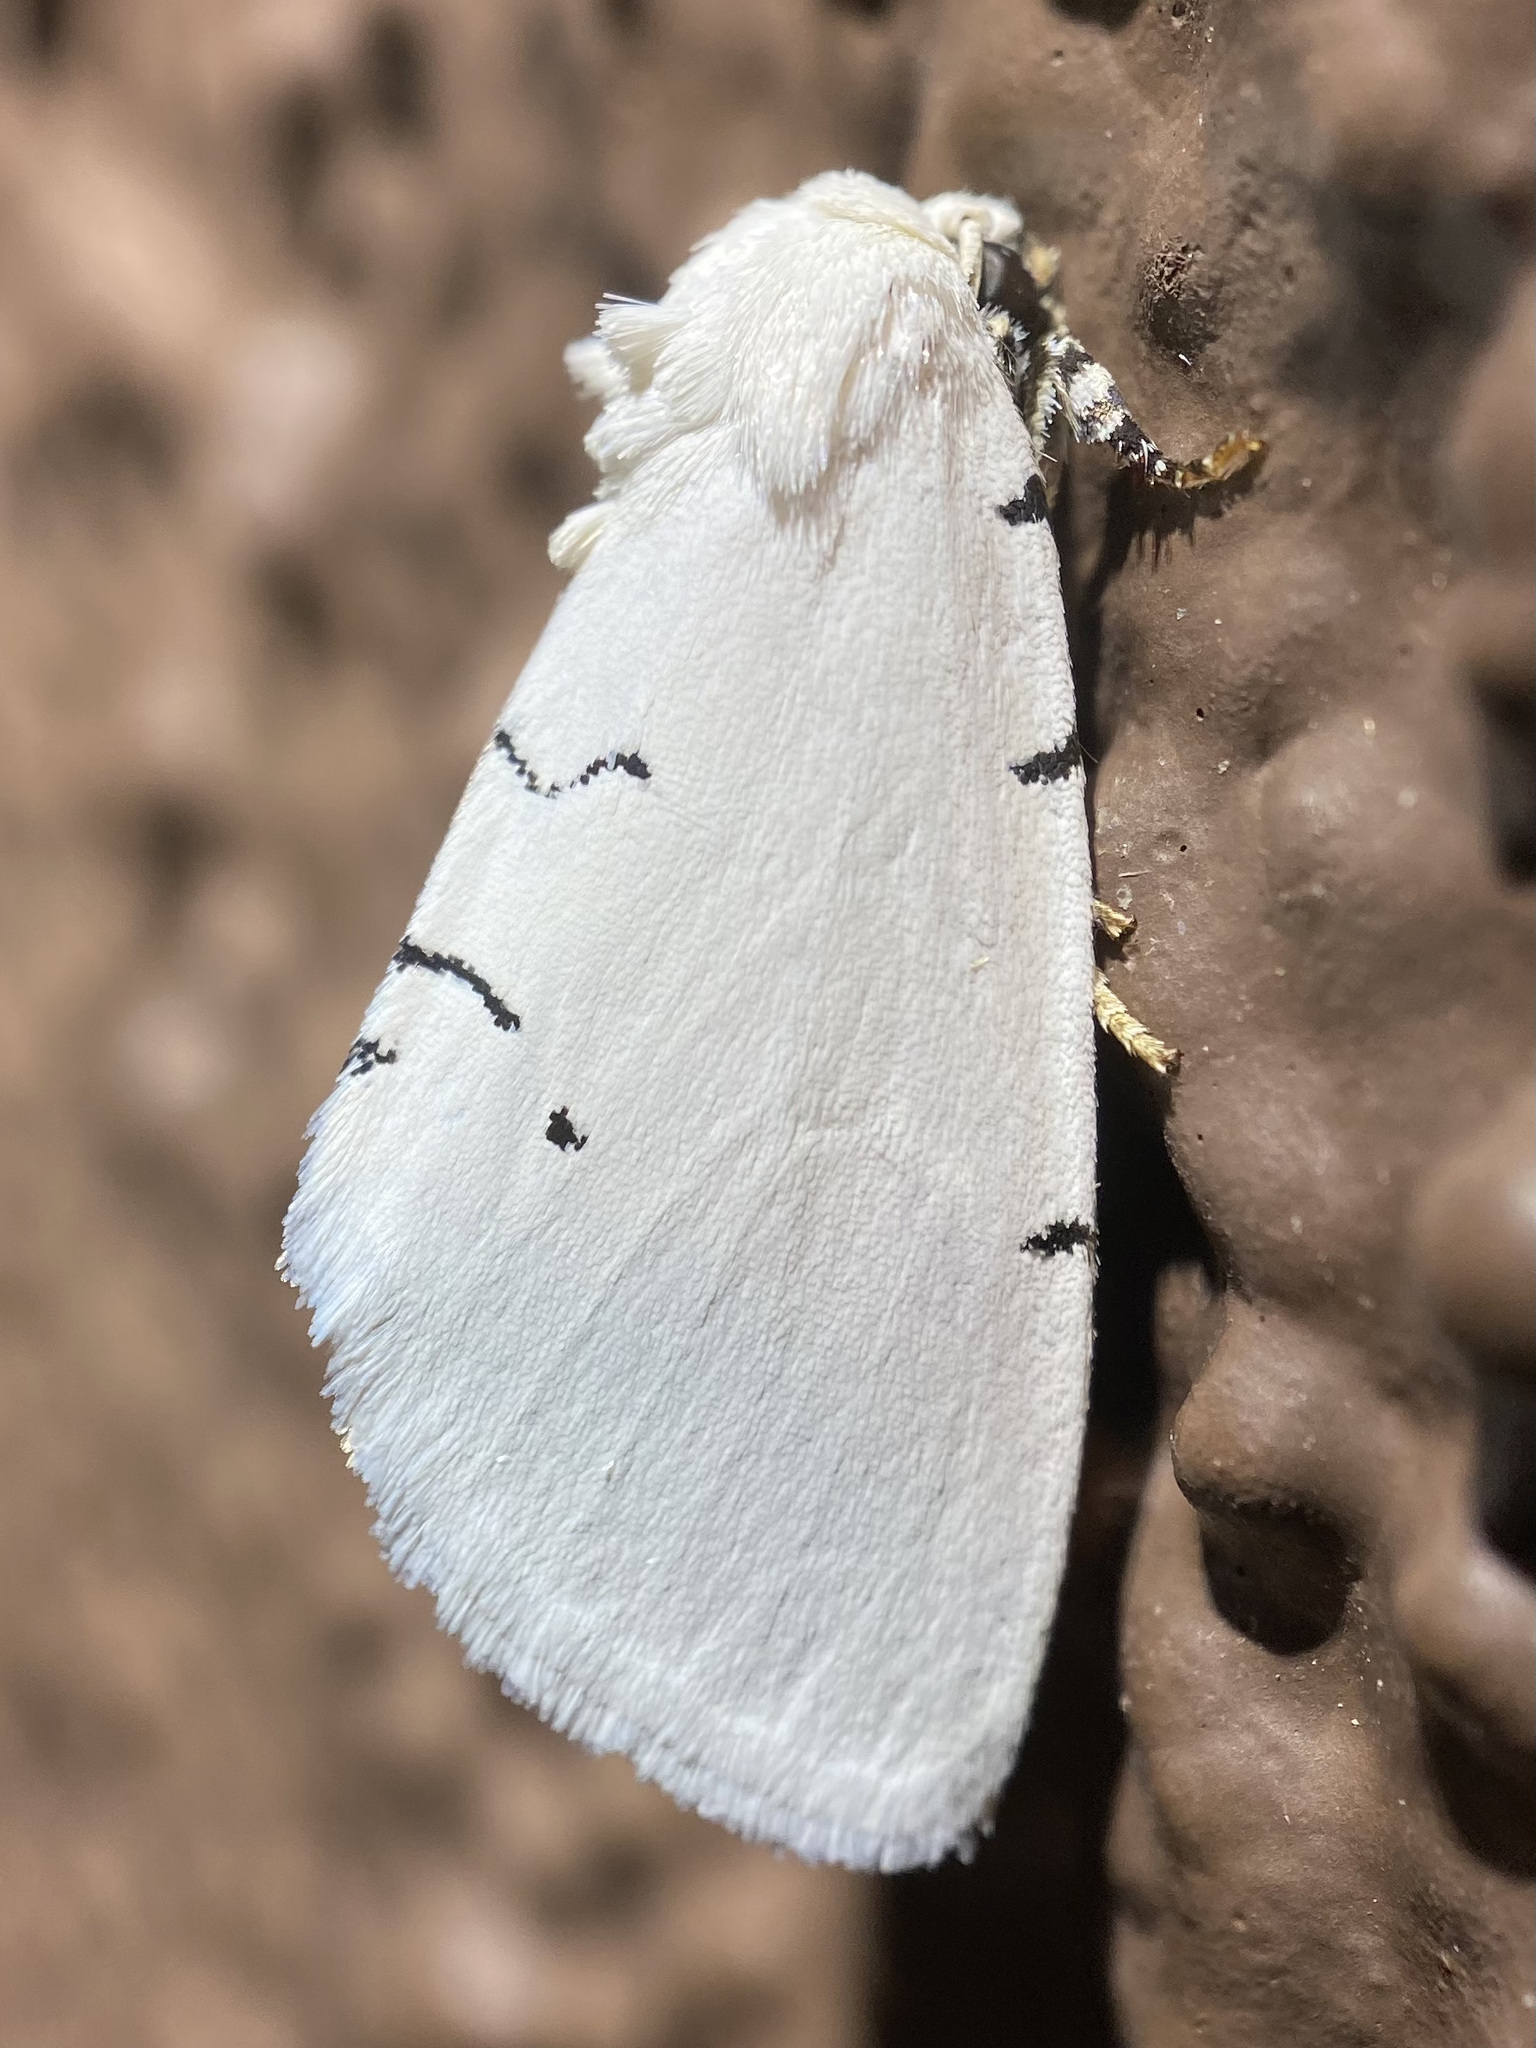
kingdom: Animalia
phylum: Arthropoda
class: Insecta
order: Lepidoptera
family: Noctuidae
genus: Hemioslaria
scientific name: Hemioslaria pima
